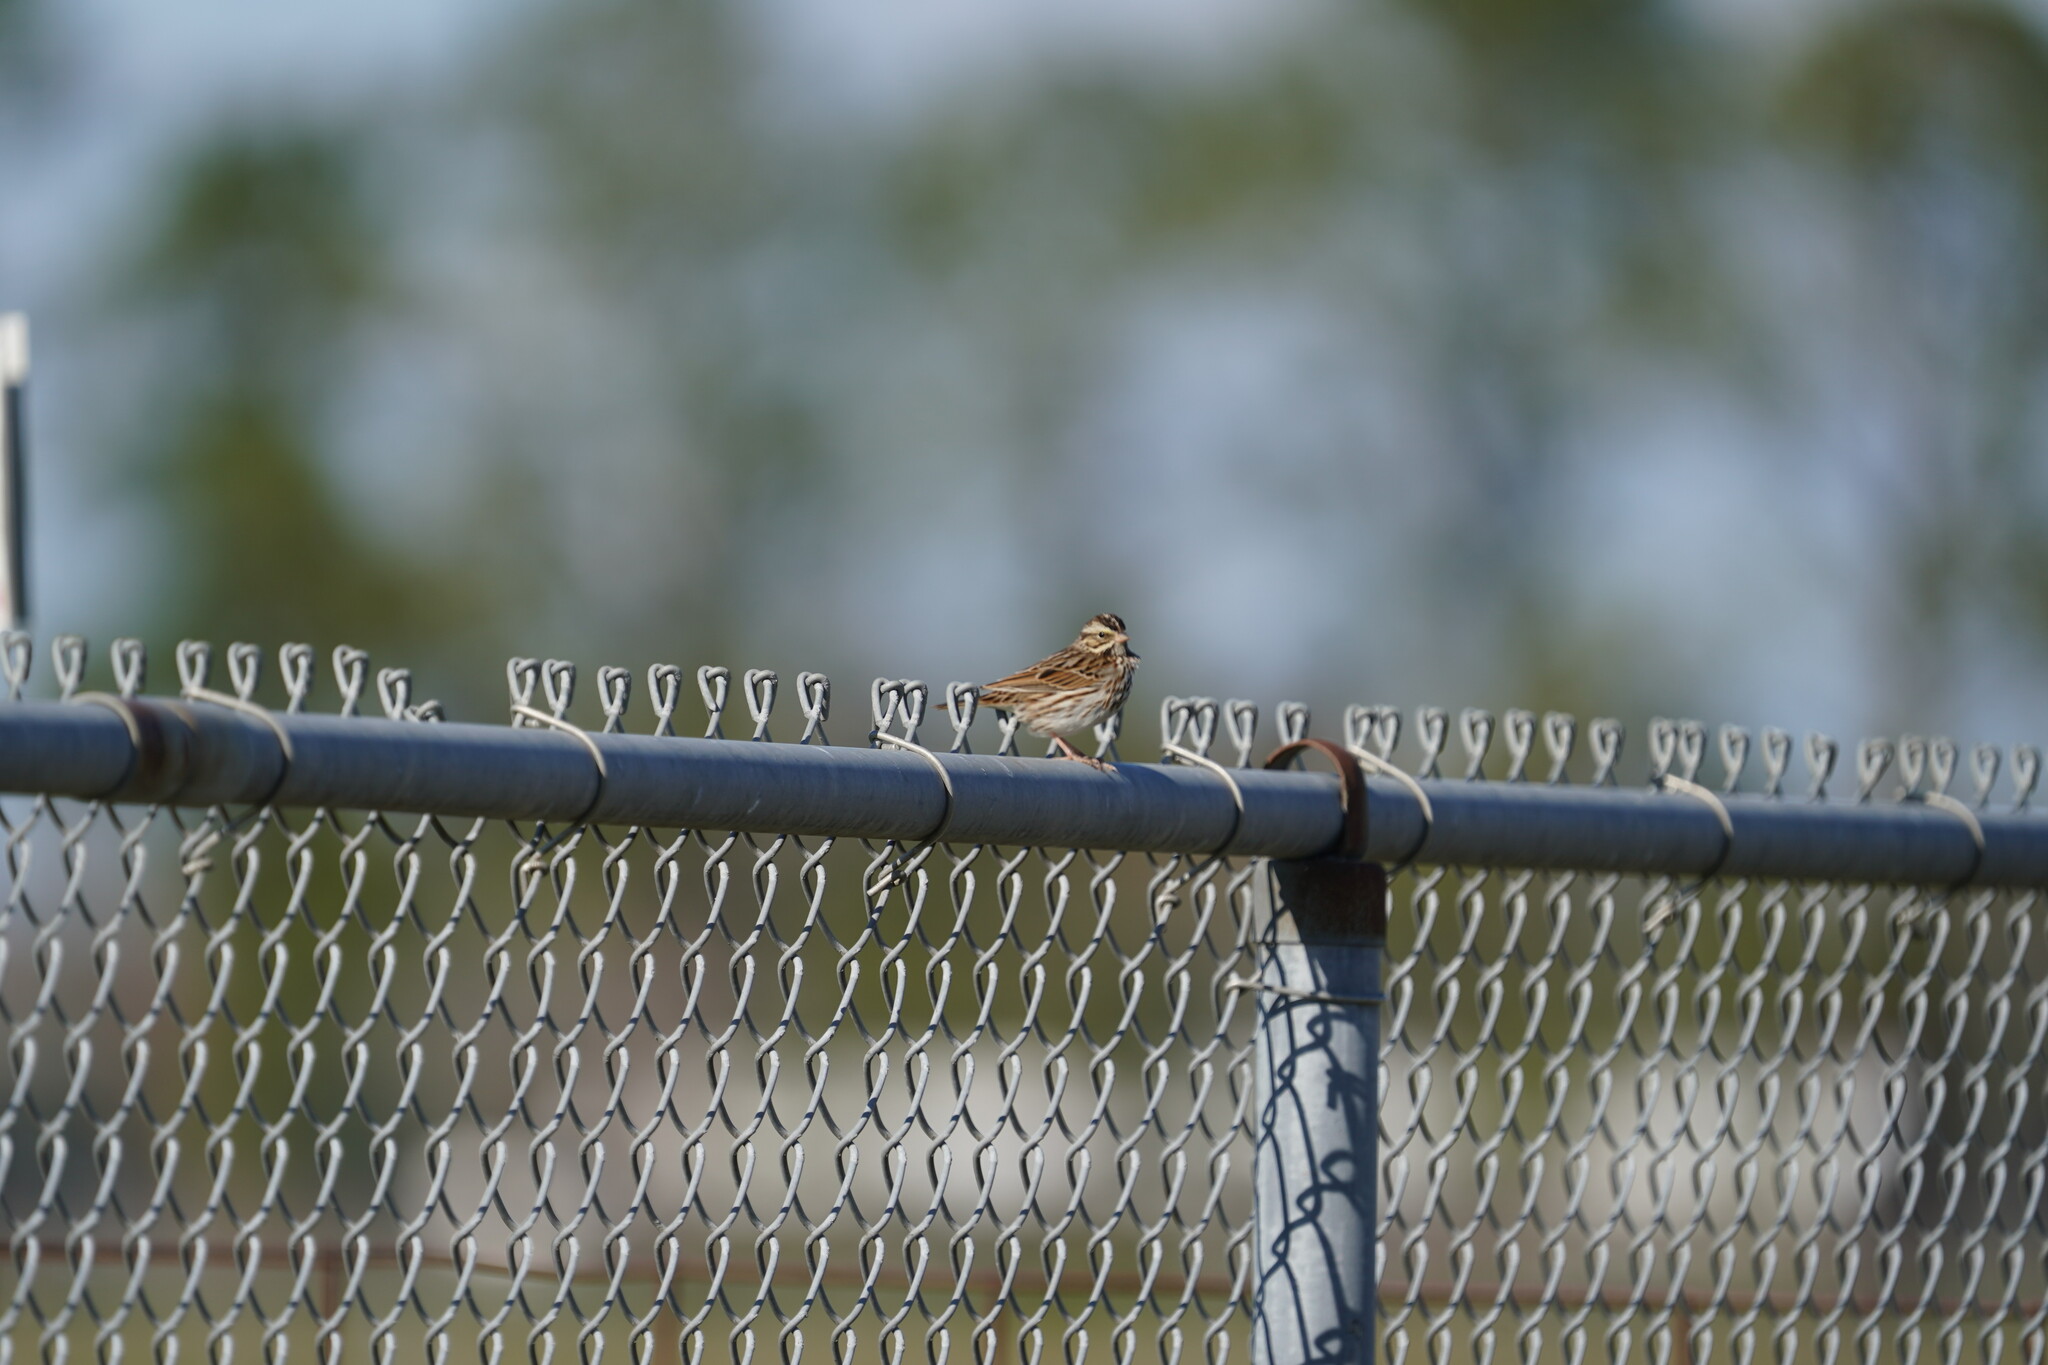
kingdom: Animalia
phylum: Chordata
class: Aves
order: Passeriformes
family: Passerellidae
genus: Passerculus
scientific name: Passerculus sandwichensis
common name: Savannah sparrow
